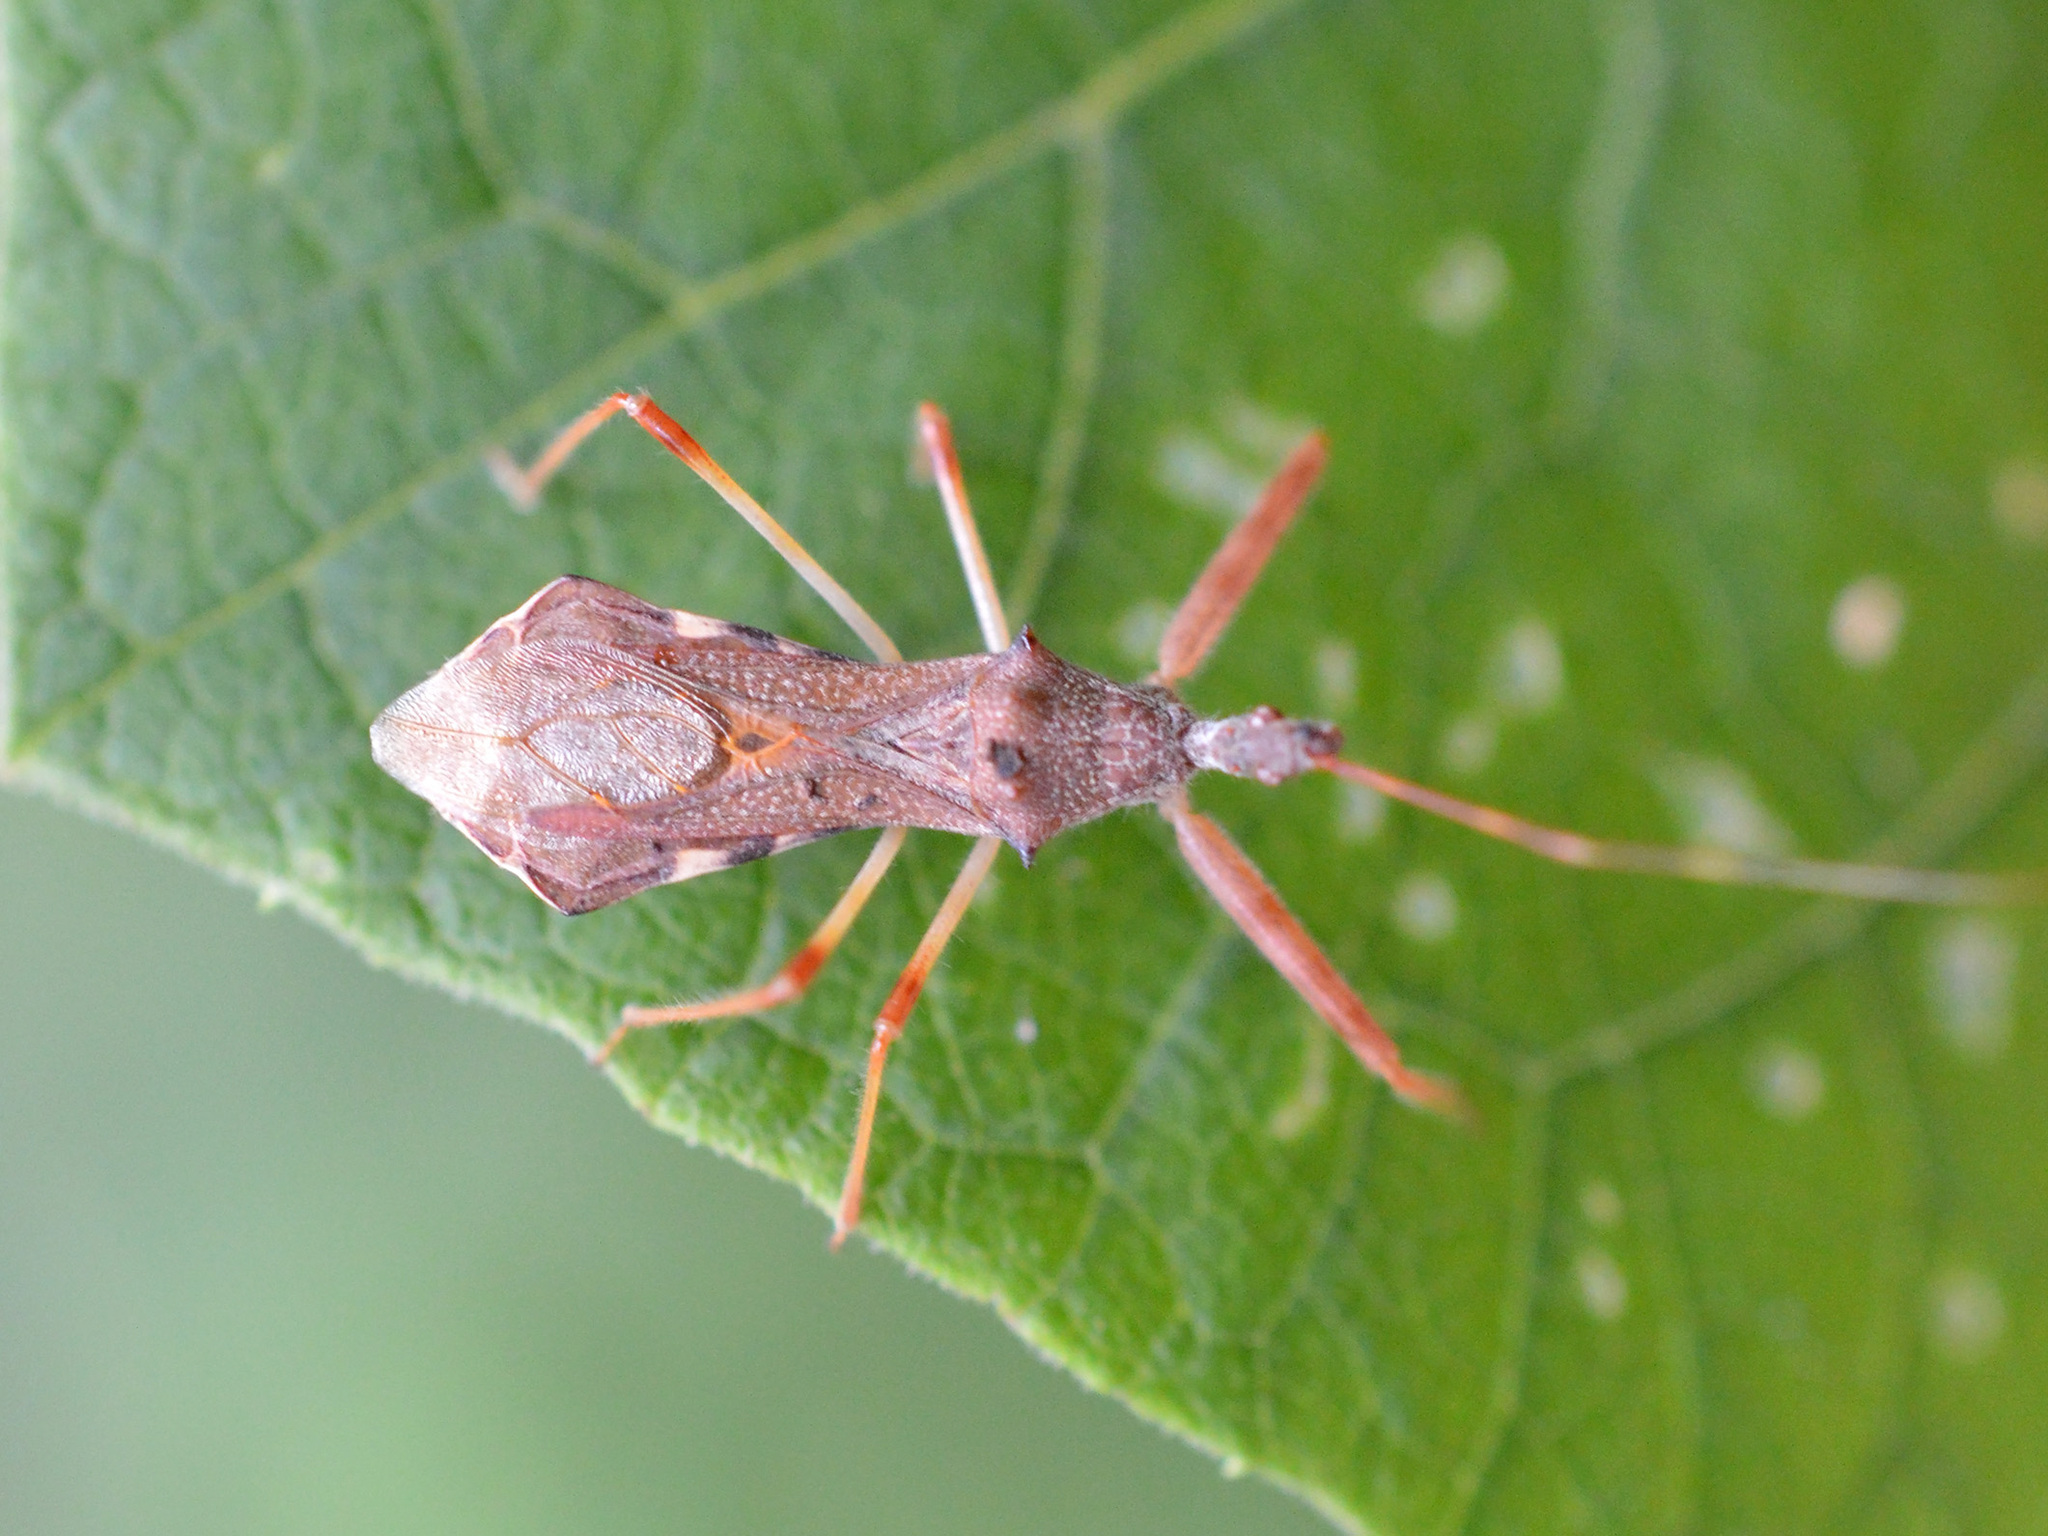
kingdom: Animalia
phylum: Arthropoda
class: Insecta
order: Hemiptera
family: Reduviidae
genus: Nagusta
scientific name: Nagusta goedelii
